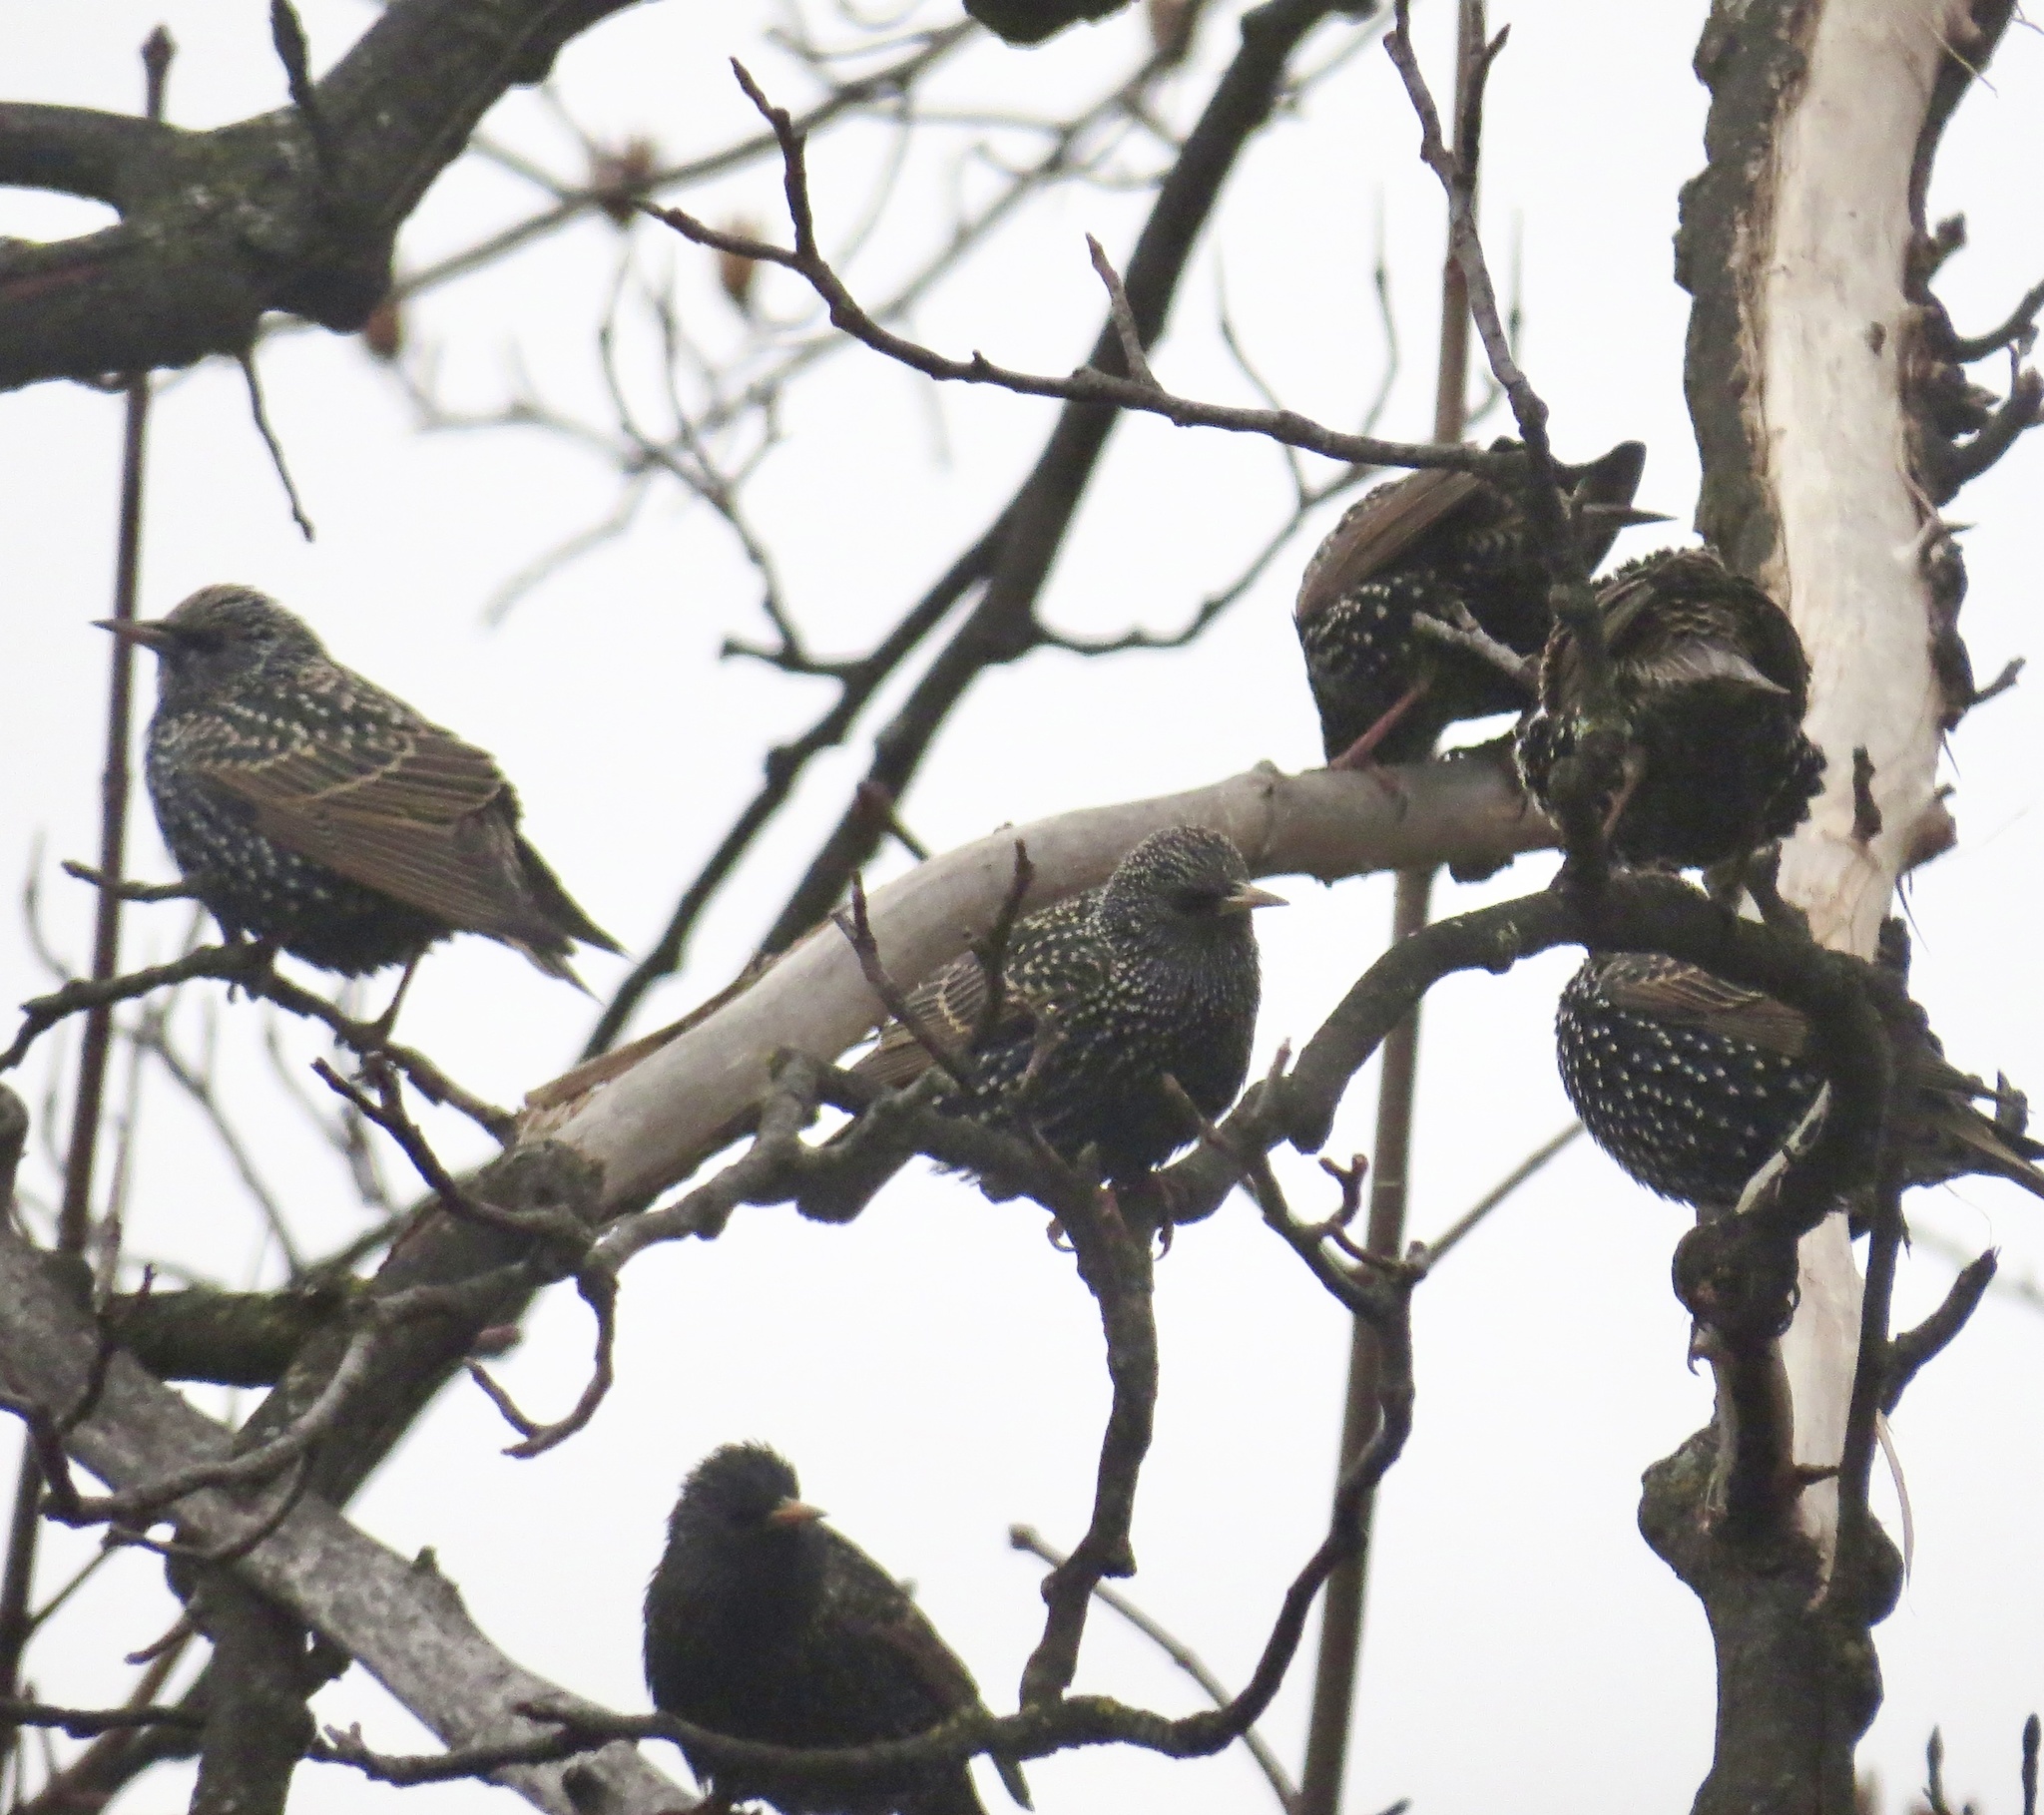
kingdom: Animalia
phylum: Chordata
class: Aves
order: Passeriformes
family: Sturnidae
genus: Sturnus
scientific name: Sturnus vulgaris
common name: Common starling
